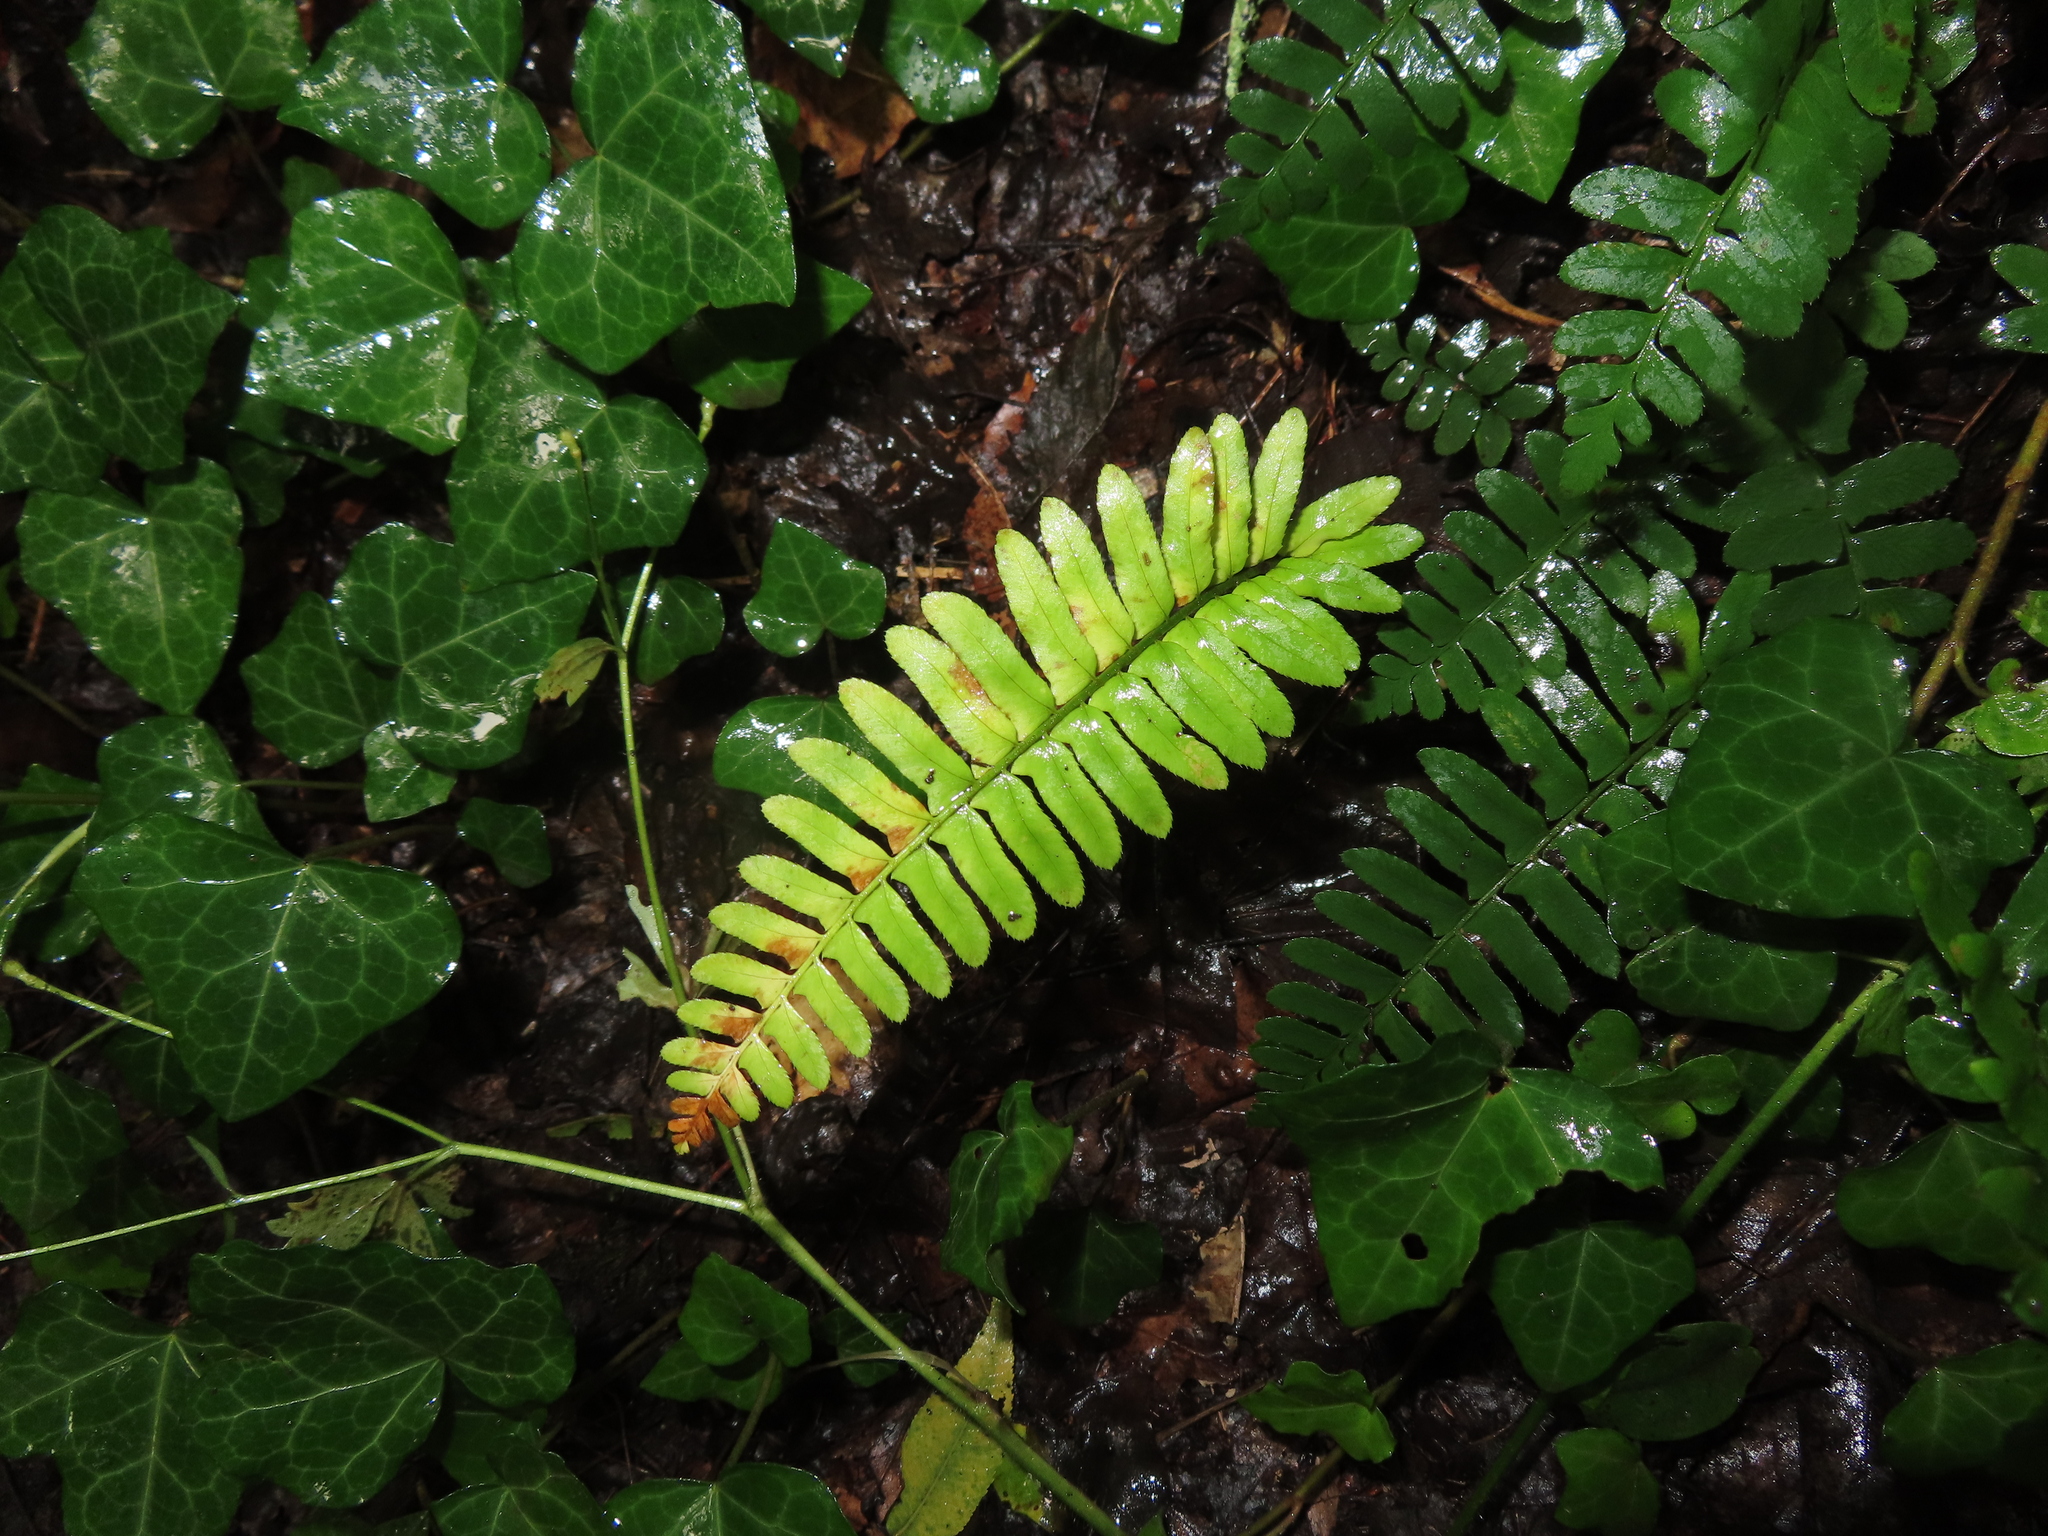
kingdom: Plantae
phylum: Tracheophyta
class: Polypodiopsida
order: Polypodiales
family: Dryopteridaceae
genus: Polystichum
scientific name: Polystichum acrostichoides
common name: Christmas fern
